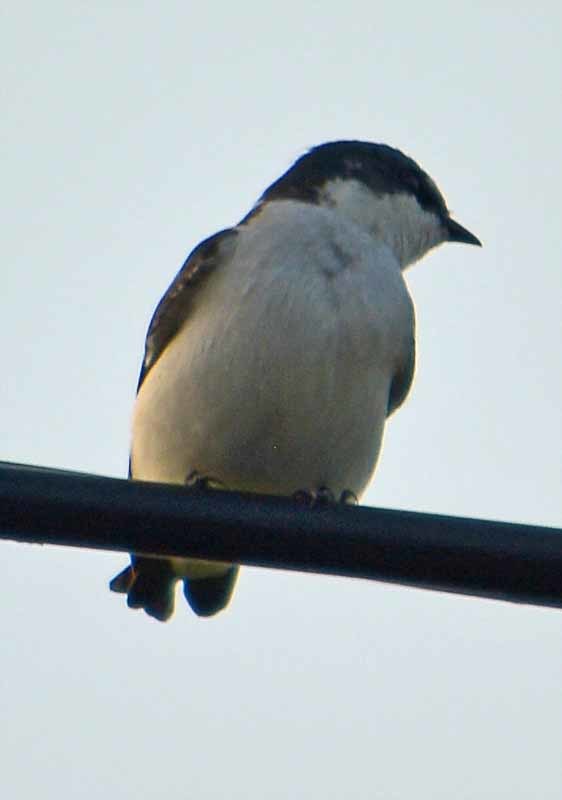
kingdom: Animalia
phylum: Chordata
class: Aves
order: Passeriformes
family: Hirundinidae
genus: Tachycineta
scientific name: Tachycineta albilinea
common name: Mangrove swallow
